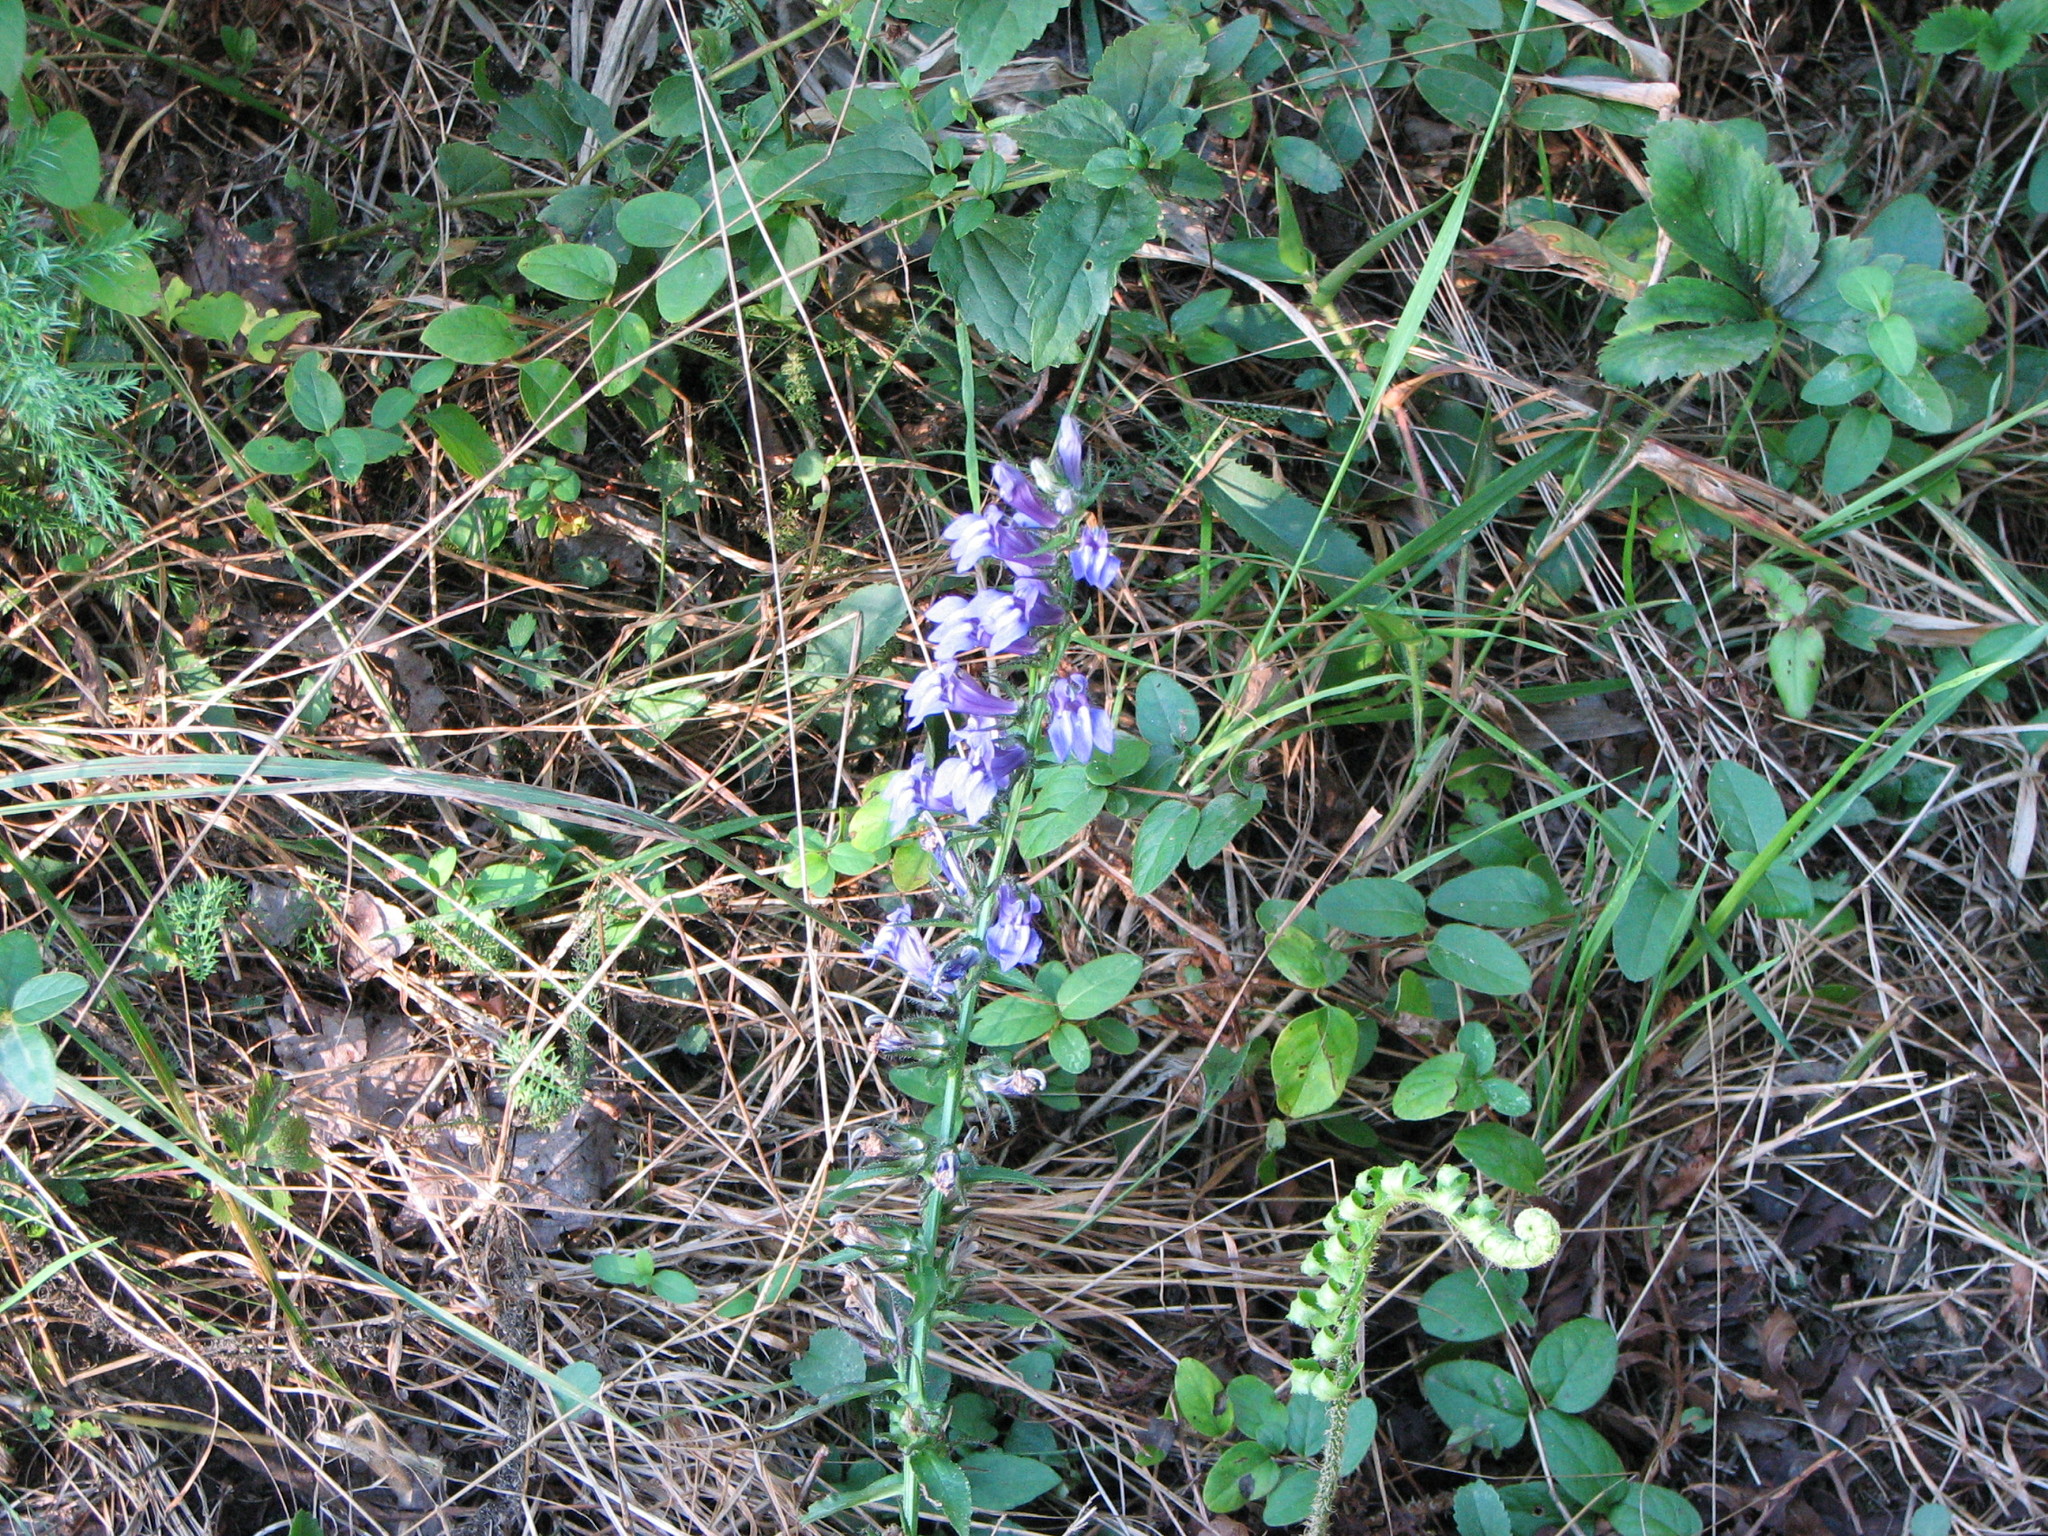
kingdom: Plantae
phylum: Tracheophyta
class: Polypodiopsida
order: Polypodiales
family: Dryopteridaceae
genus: Polystichum
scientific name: Polystichum acrostichoides
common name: Christmas fern
